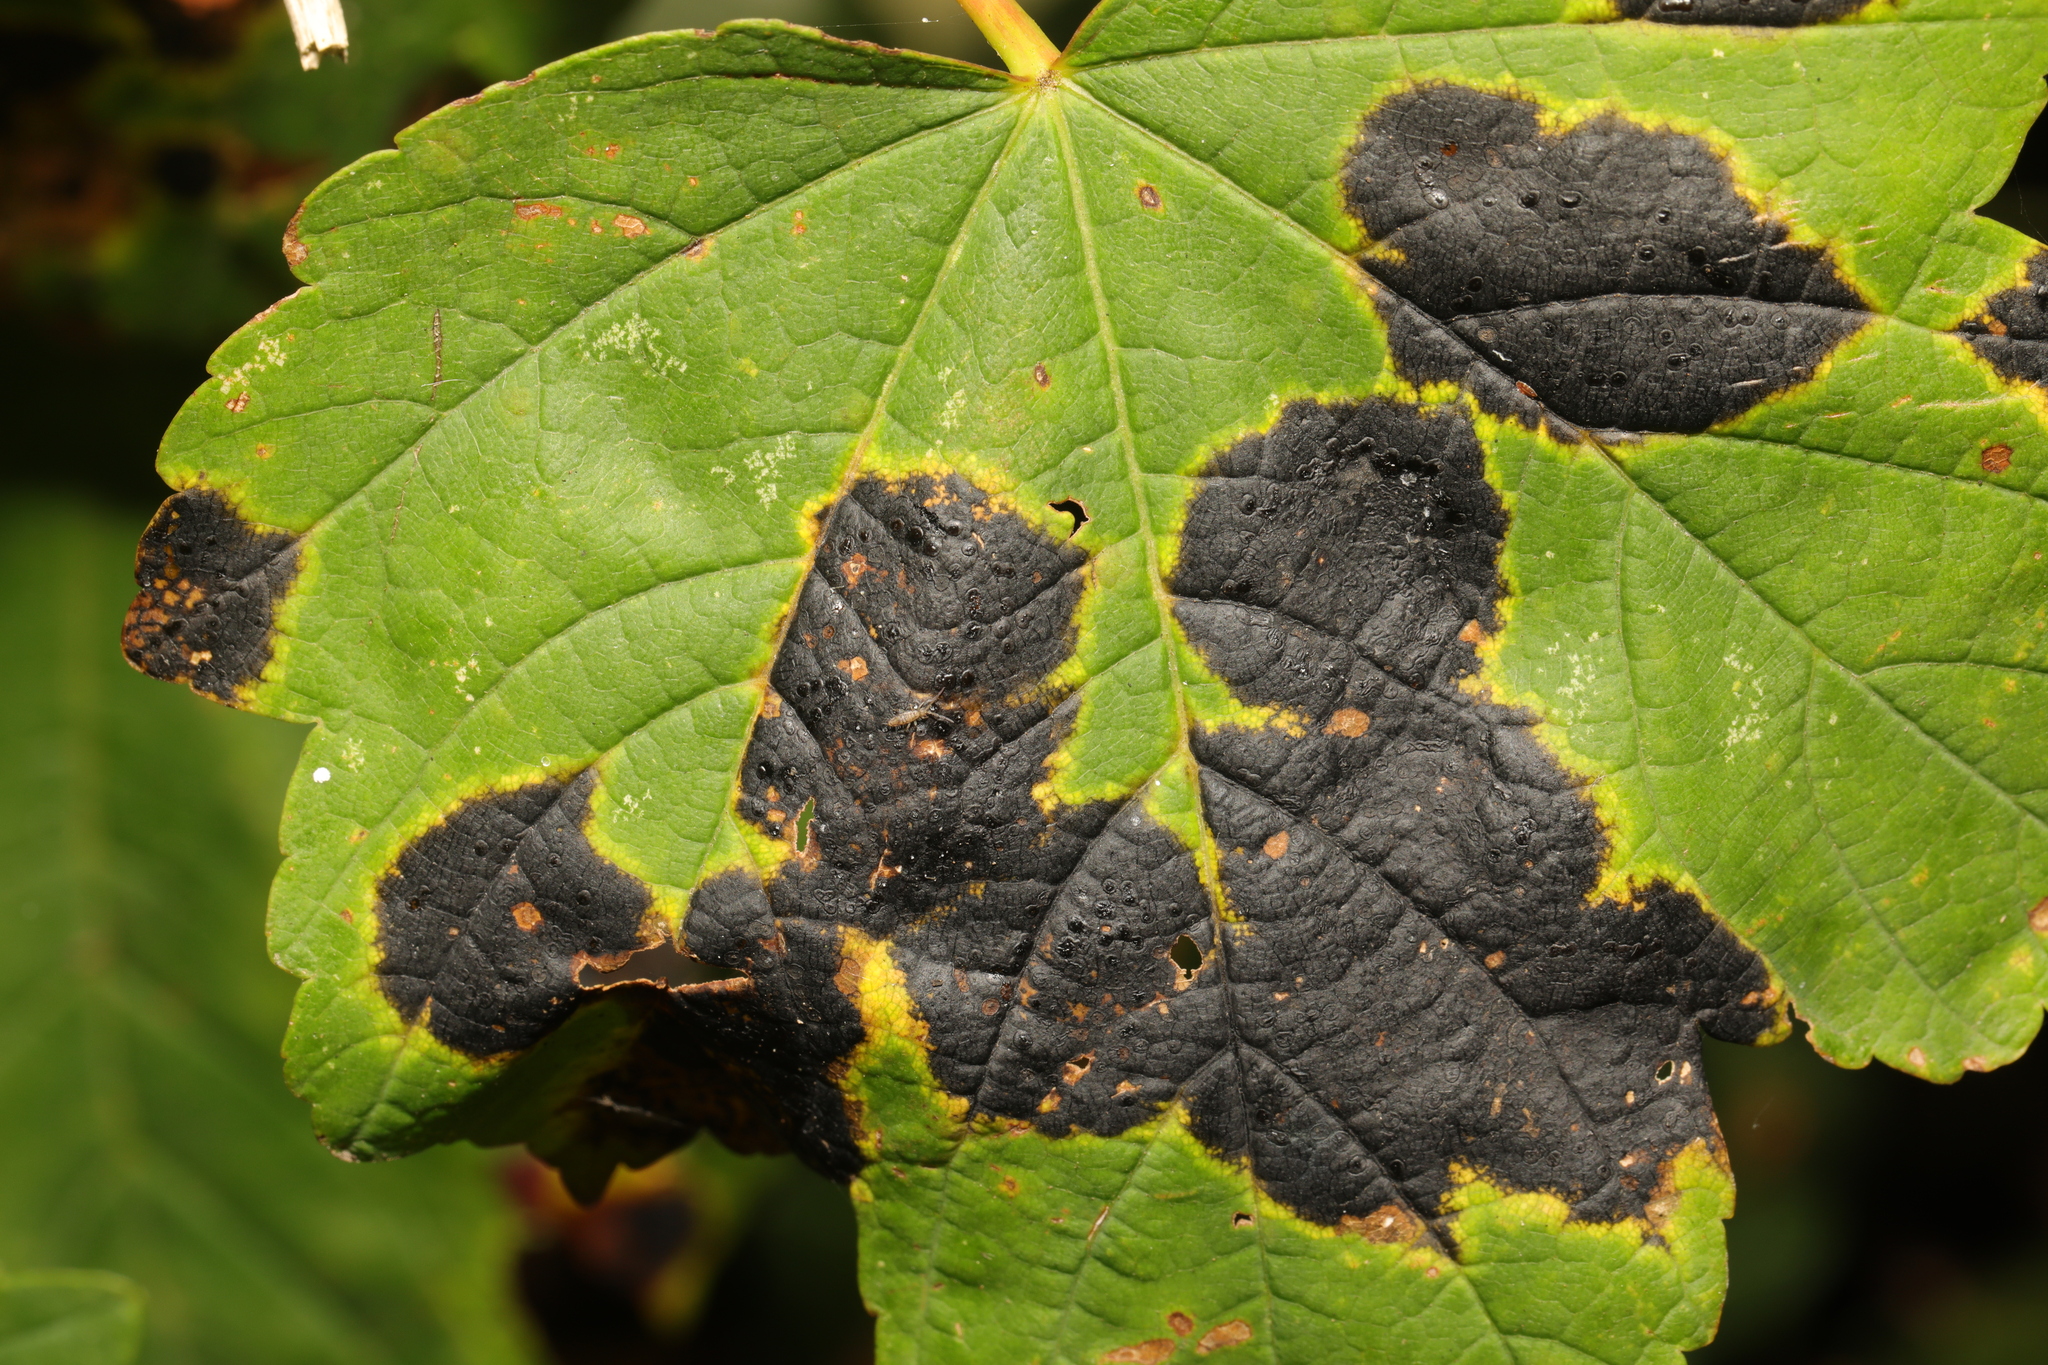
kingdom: Fungi
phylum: Ascomycota
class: Leotiomycetes
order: Rhytismatales
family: Rhytismataceae
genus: Rhytisma
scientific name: Rhytisma acerinum
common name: European tar spot
